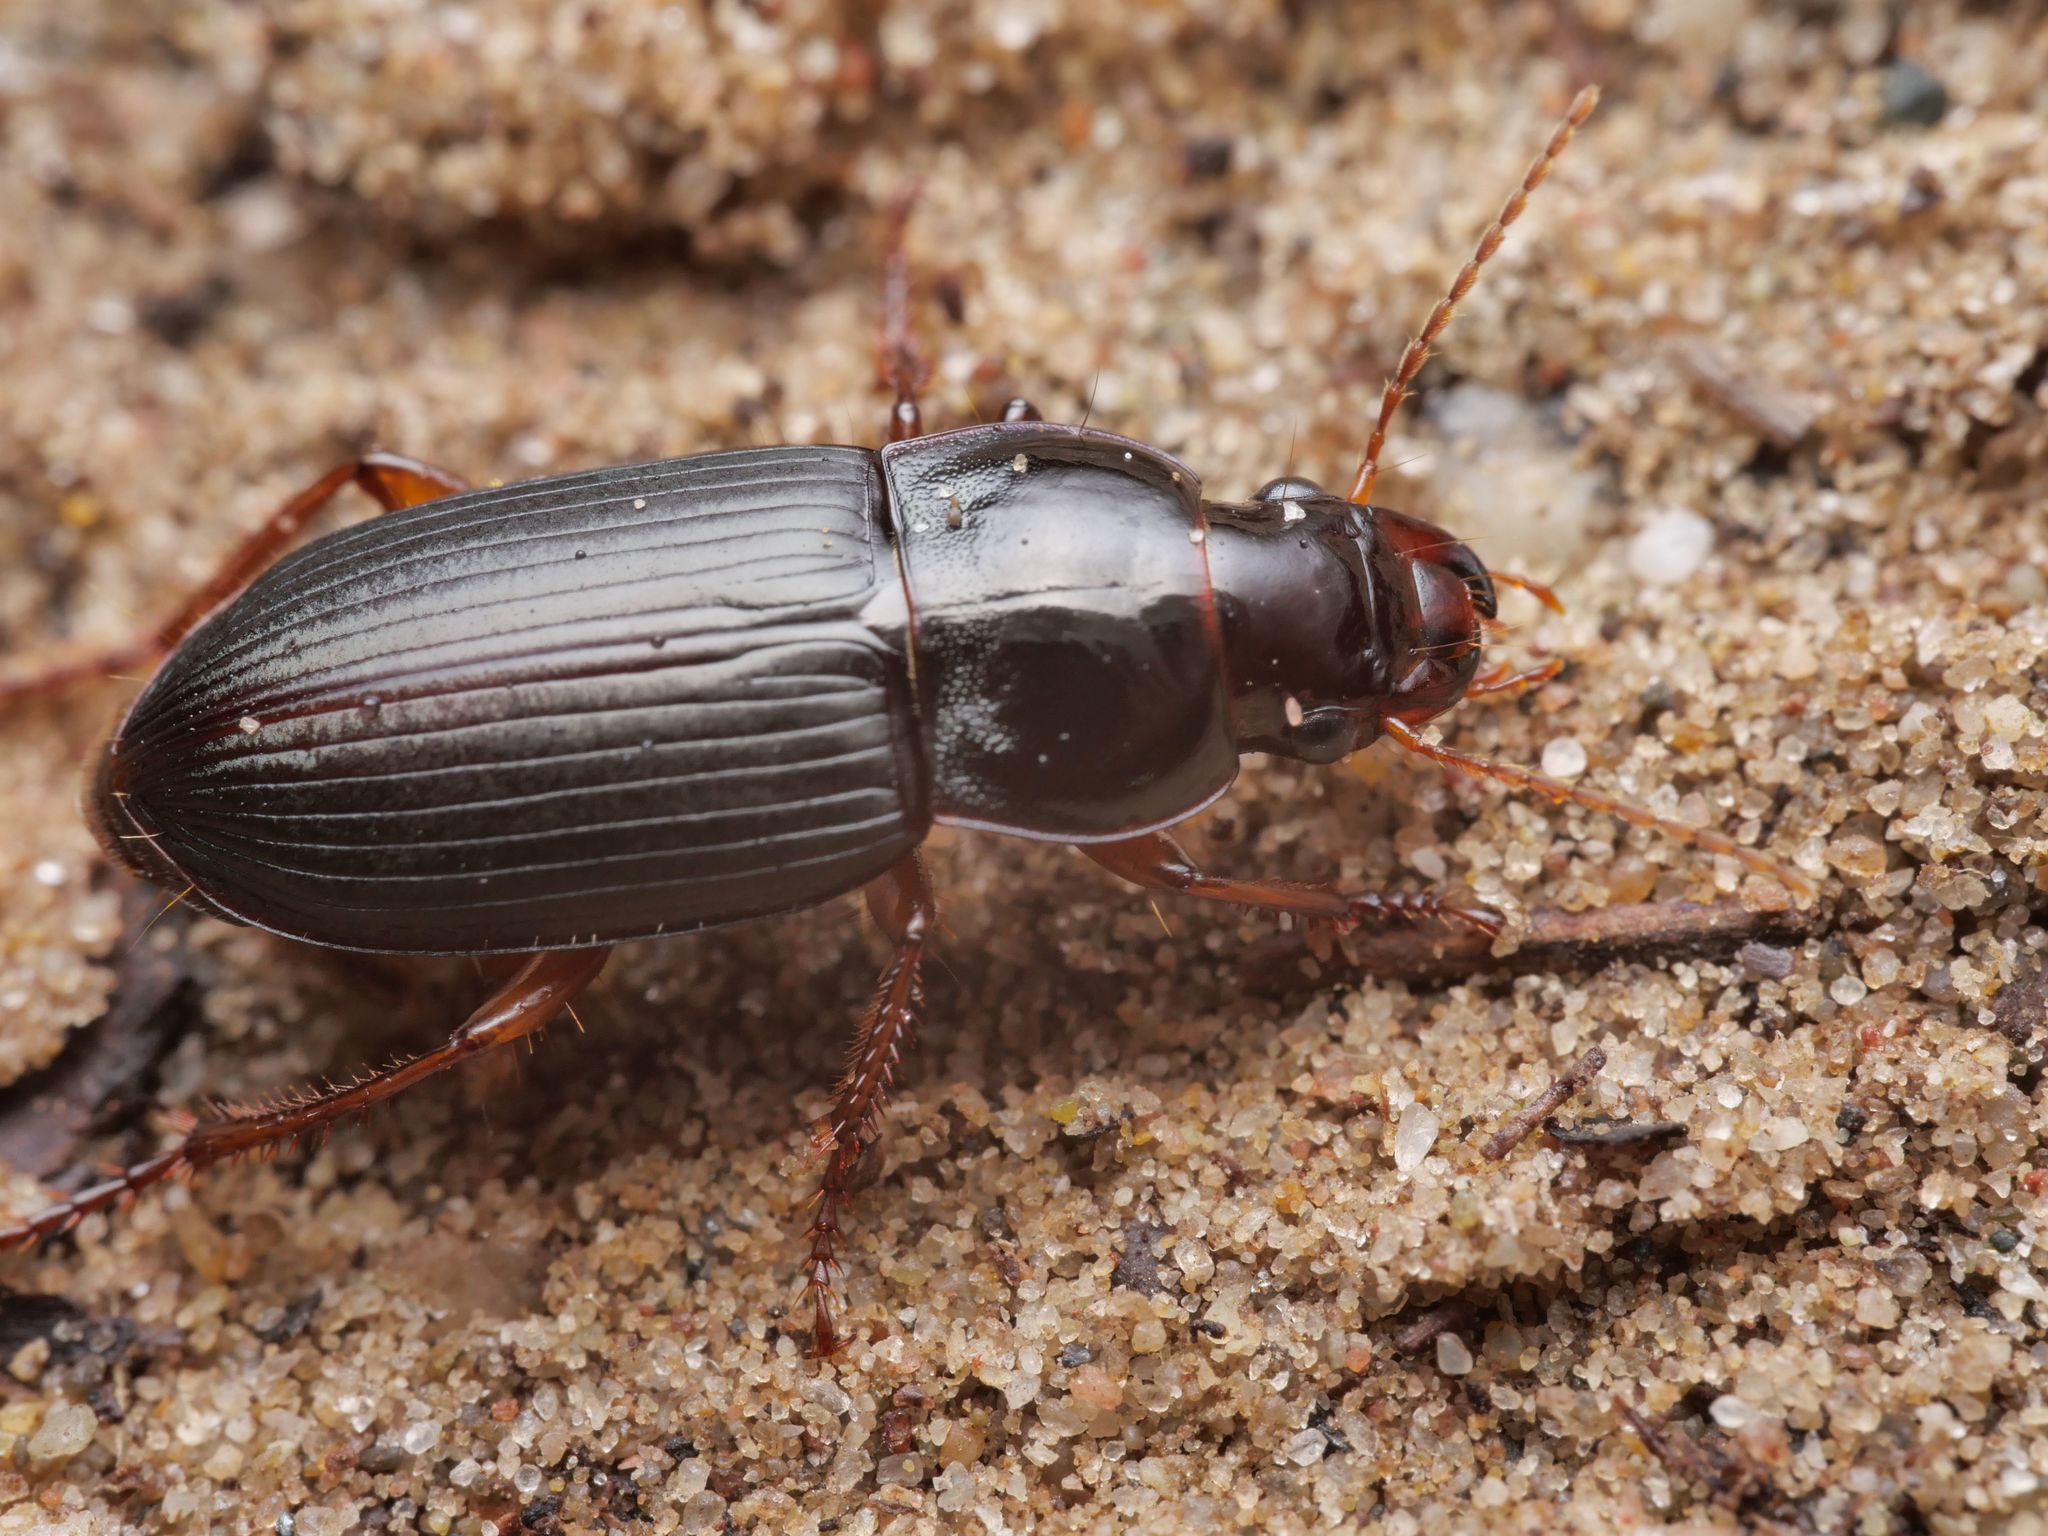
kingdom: Animalia
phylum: Arthropoda
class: Insecta
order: Coleoptera
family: Carabidae
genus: Harpalus
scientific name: Harpalus smaragdinus
